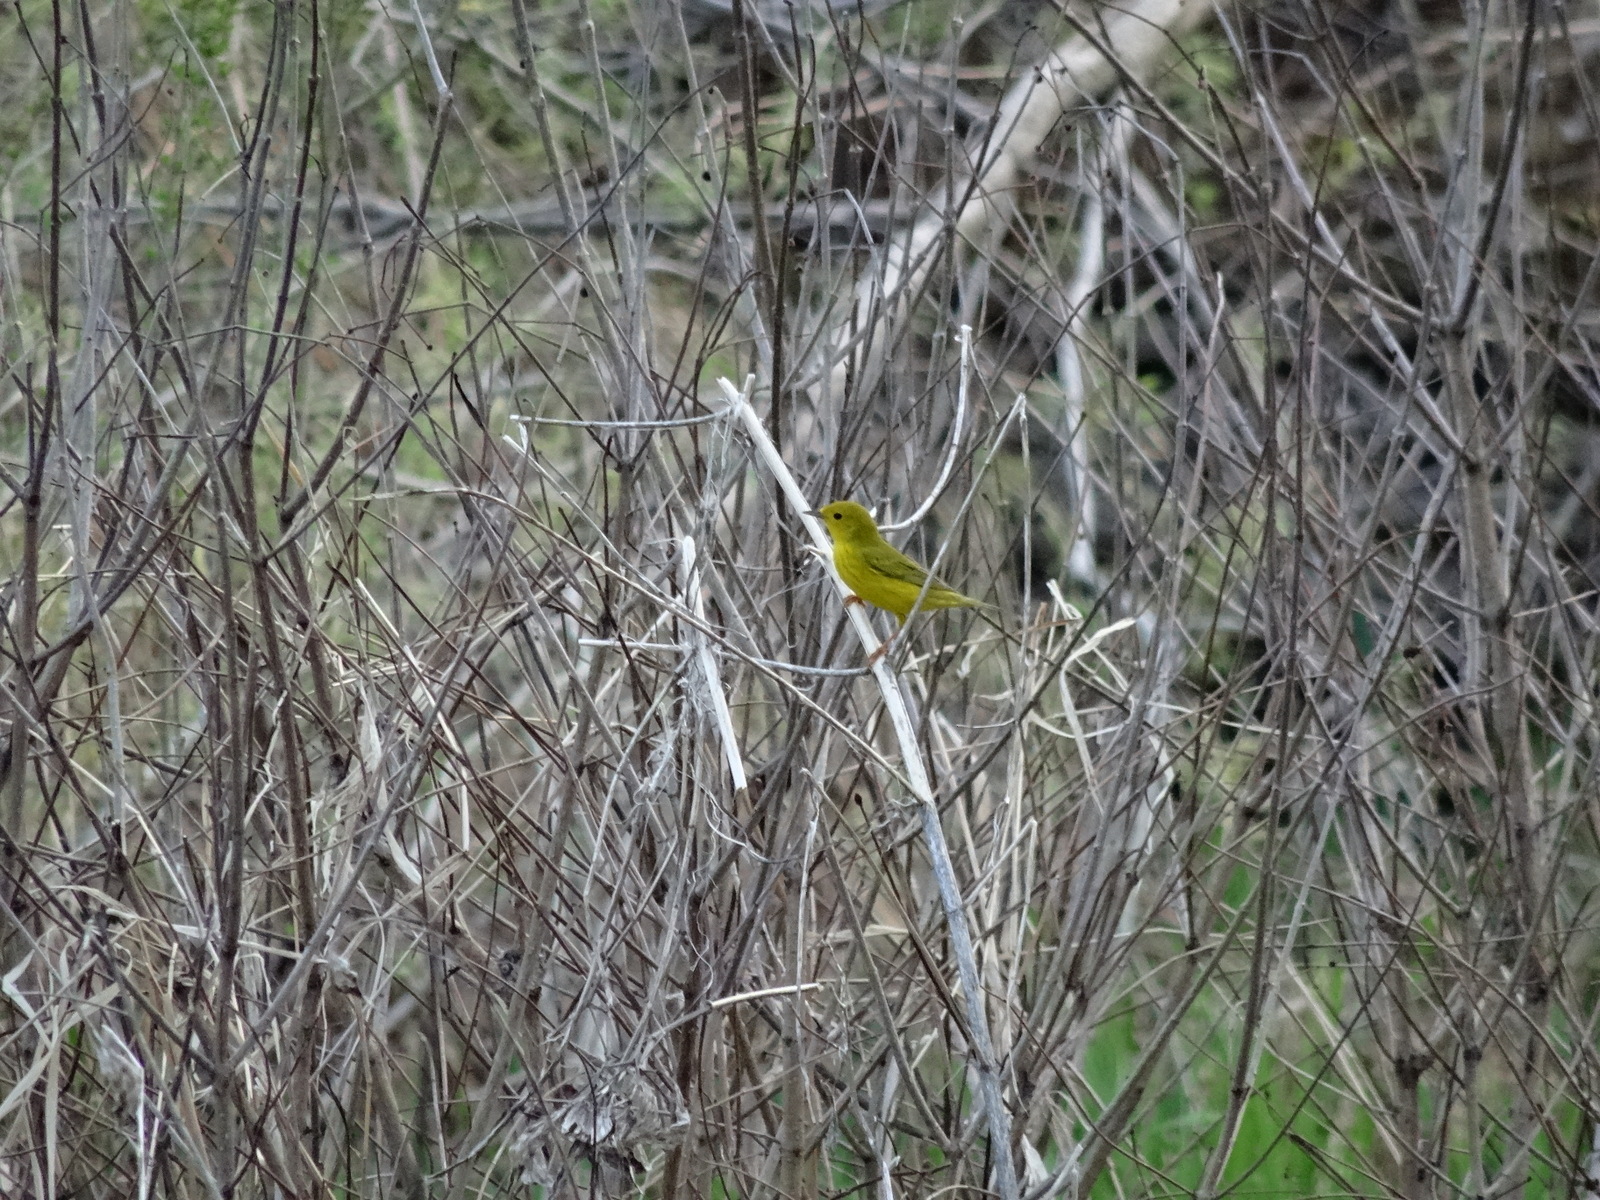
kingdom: Animalia
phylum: Chordata
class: Aves
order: Passeriformes
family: Parulidae
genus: Setophaga
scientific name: Setophaga petechia
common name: Yellow warbler
